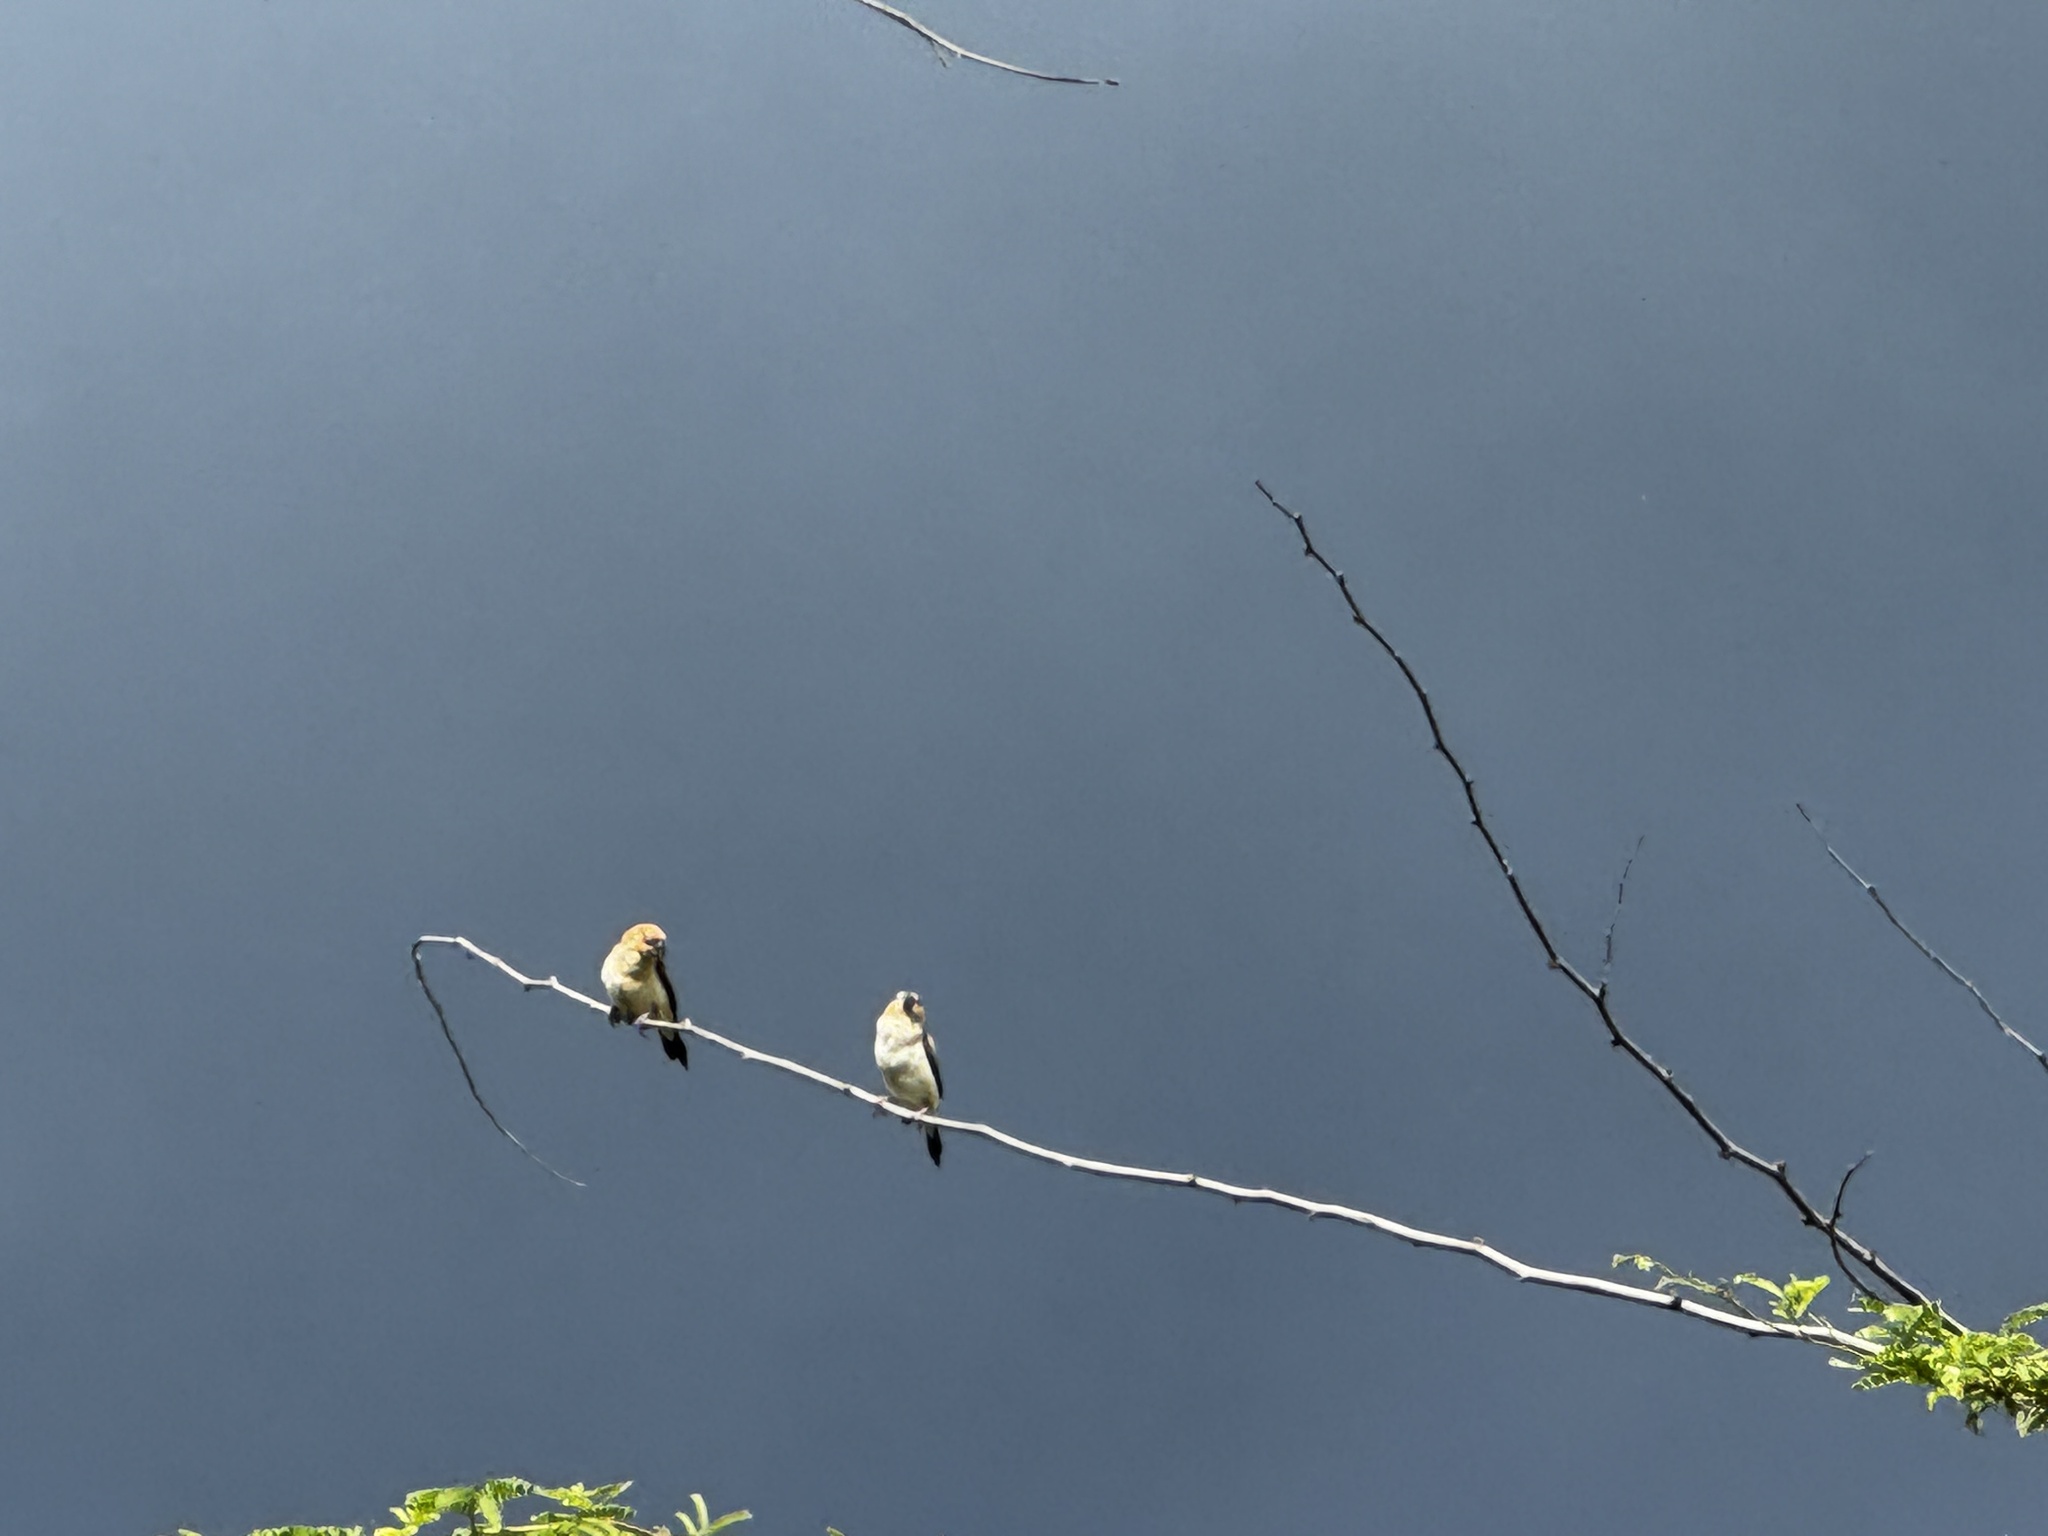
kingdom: Animalia
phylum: Chordata
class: Aves
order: Passeriformes
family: Estrildidae
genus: Euodice
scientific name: Euodice cantans
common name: African silverbill
